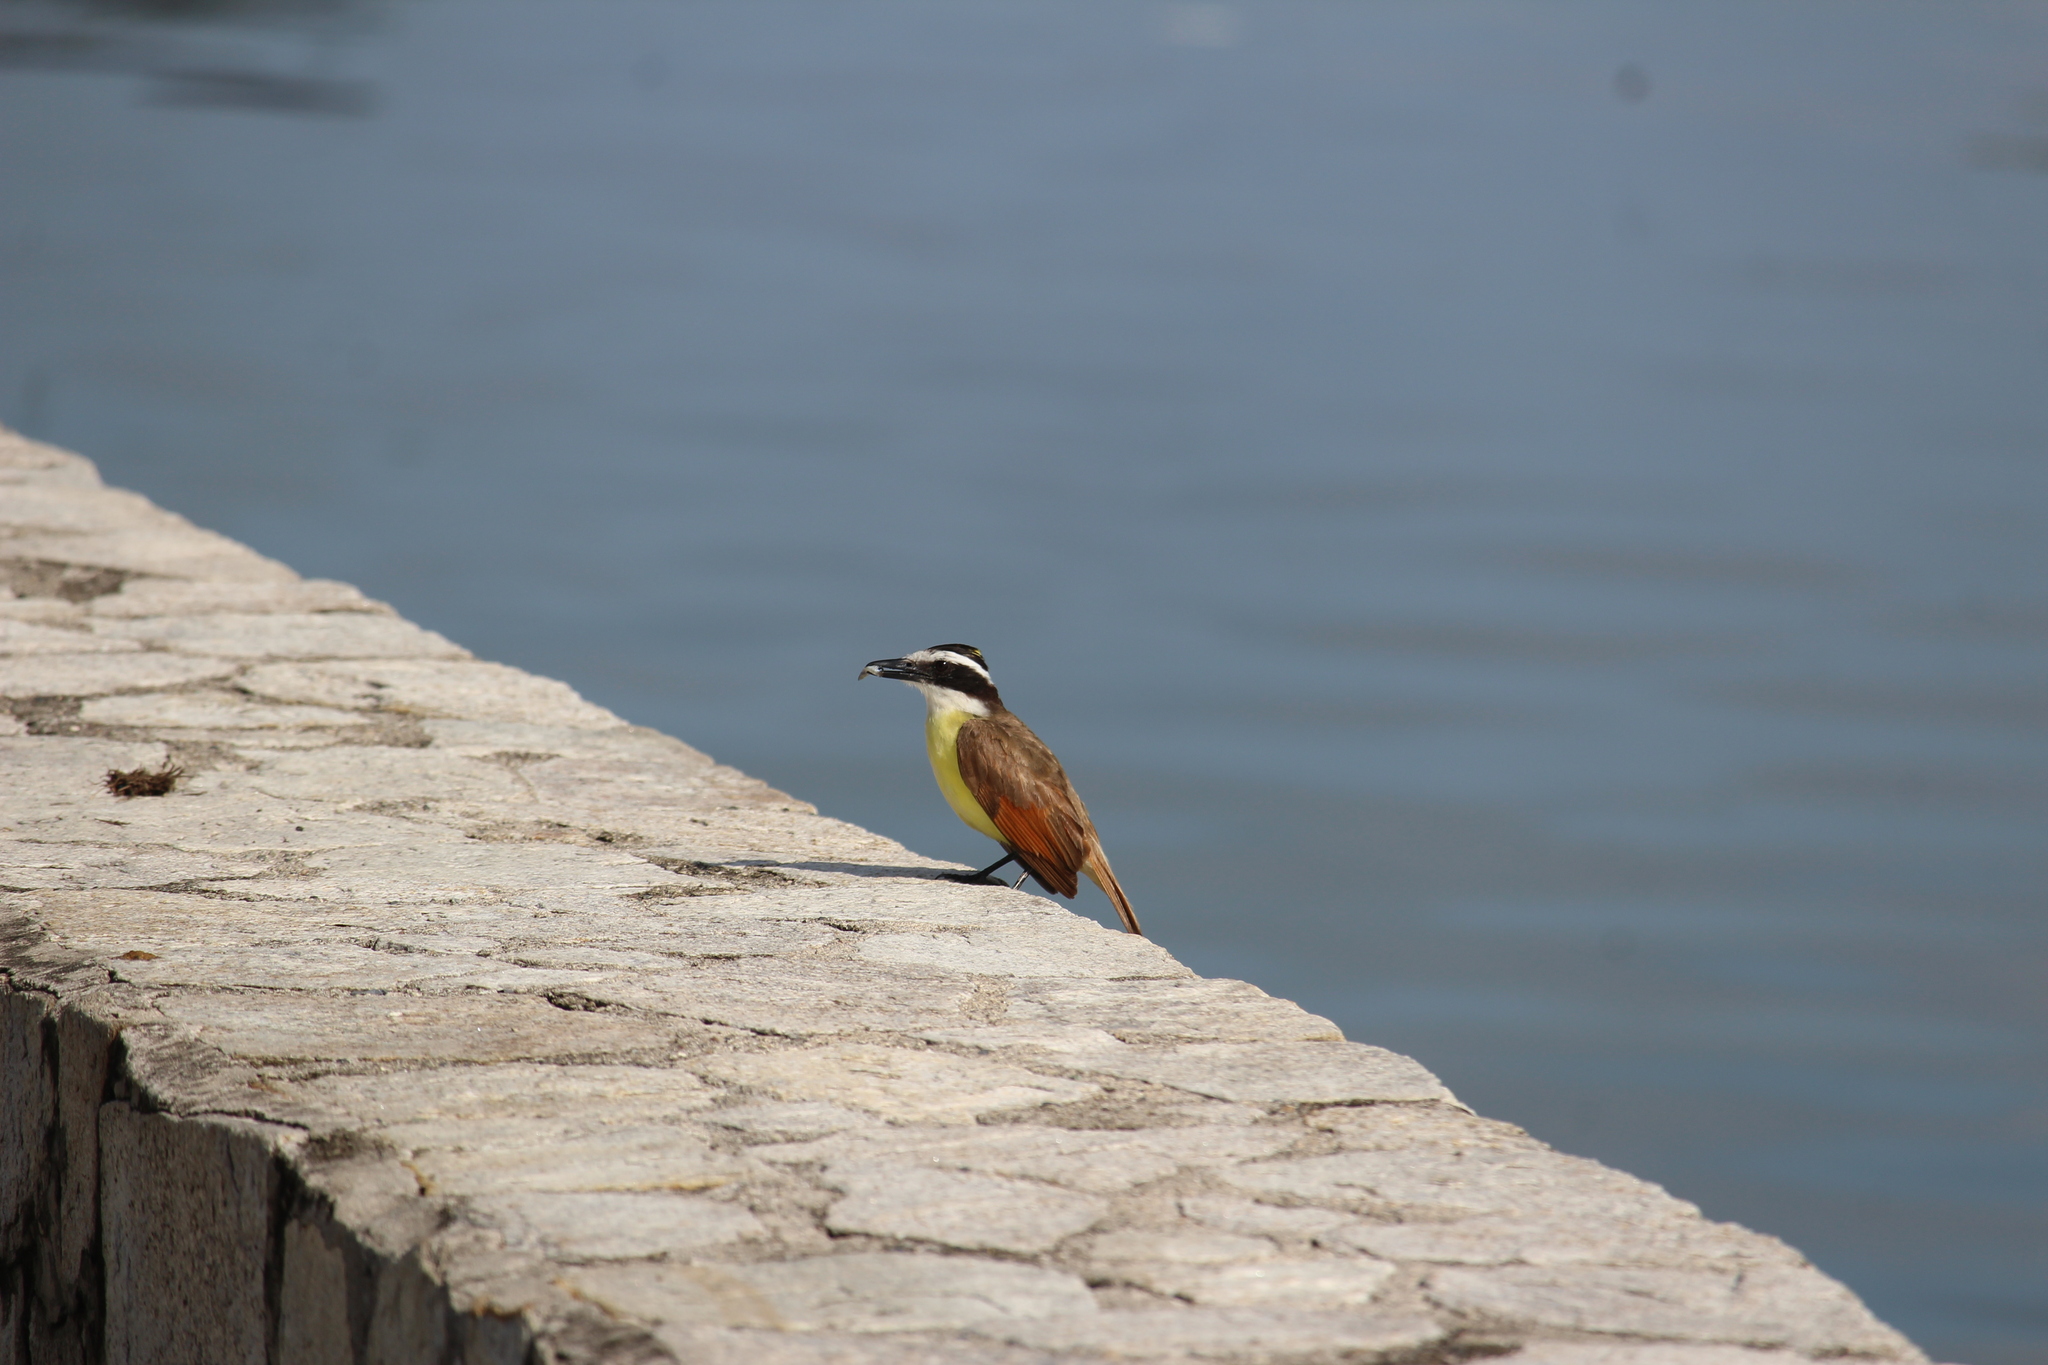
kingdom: Animalia
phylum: Chordata
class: Aves
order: Passeriformes
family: Tyrannidae
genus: Pitangus
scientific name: Pitangus sulphuratus
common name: Great kiskadee
